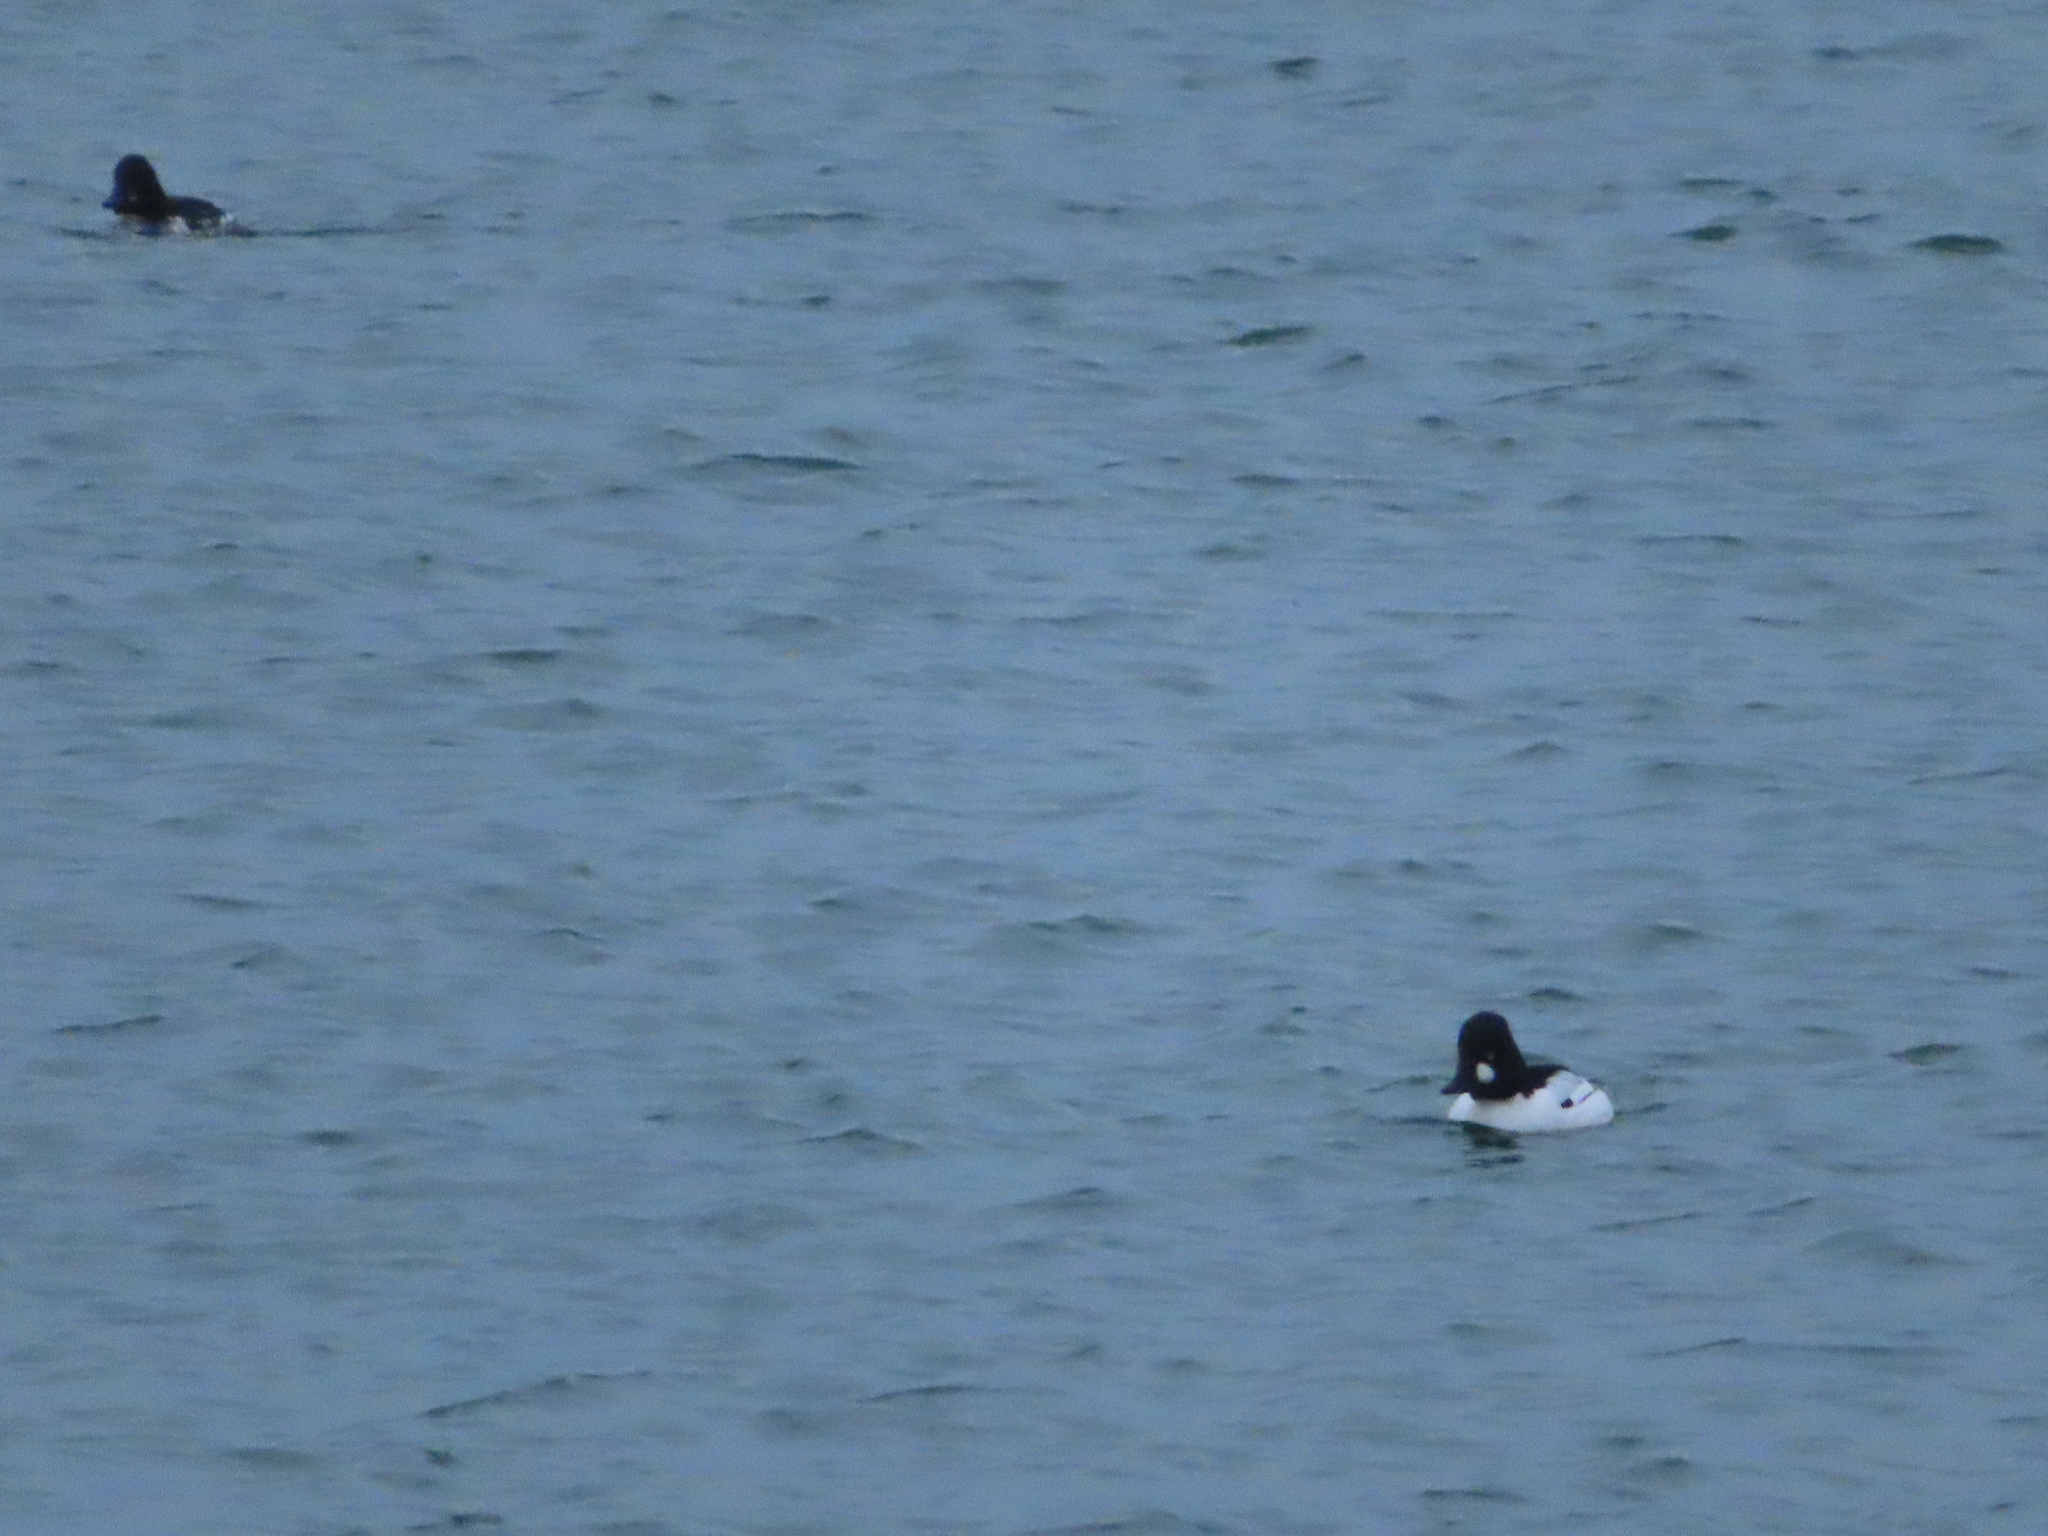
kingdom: Animalia
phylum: Chordata
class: Aves
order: Anseriformes
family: Anatidae
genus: Bucephala
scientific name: Bucephala clangula
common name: Common goldeneye
